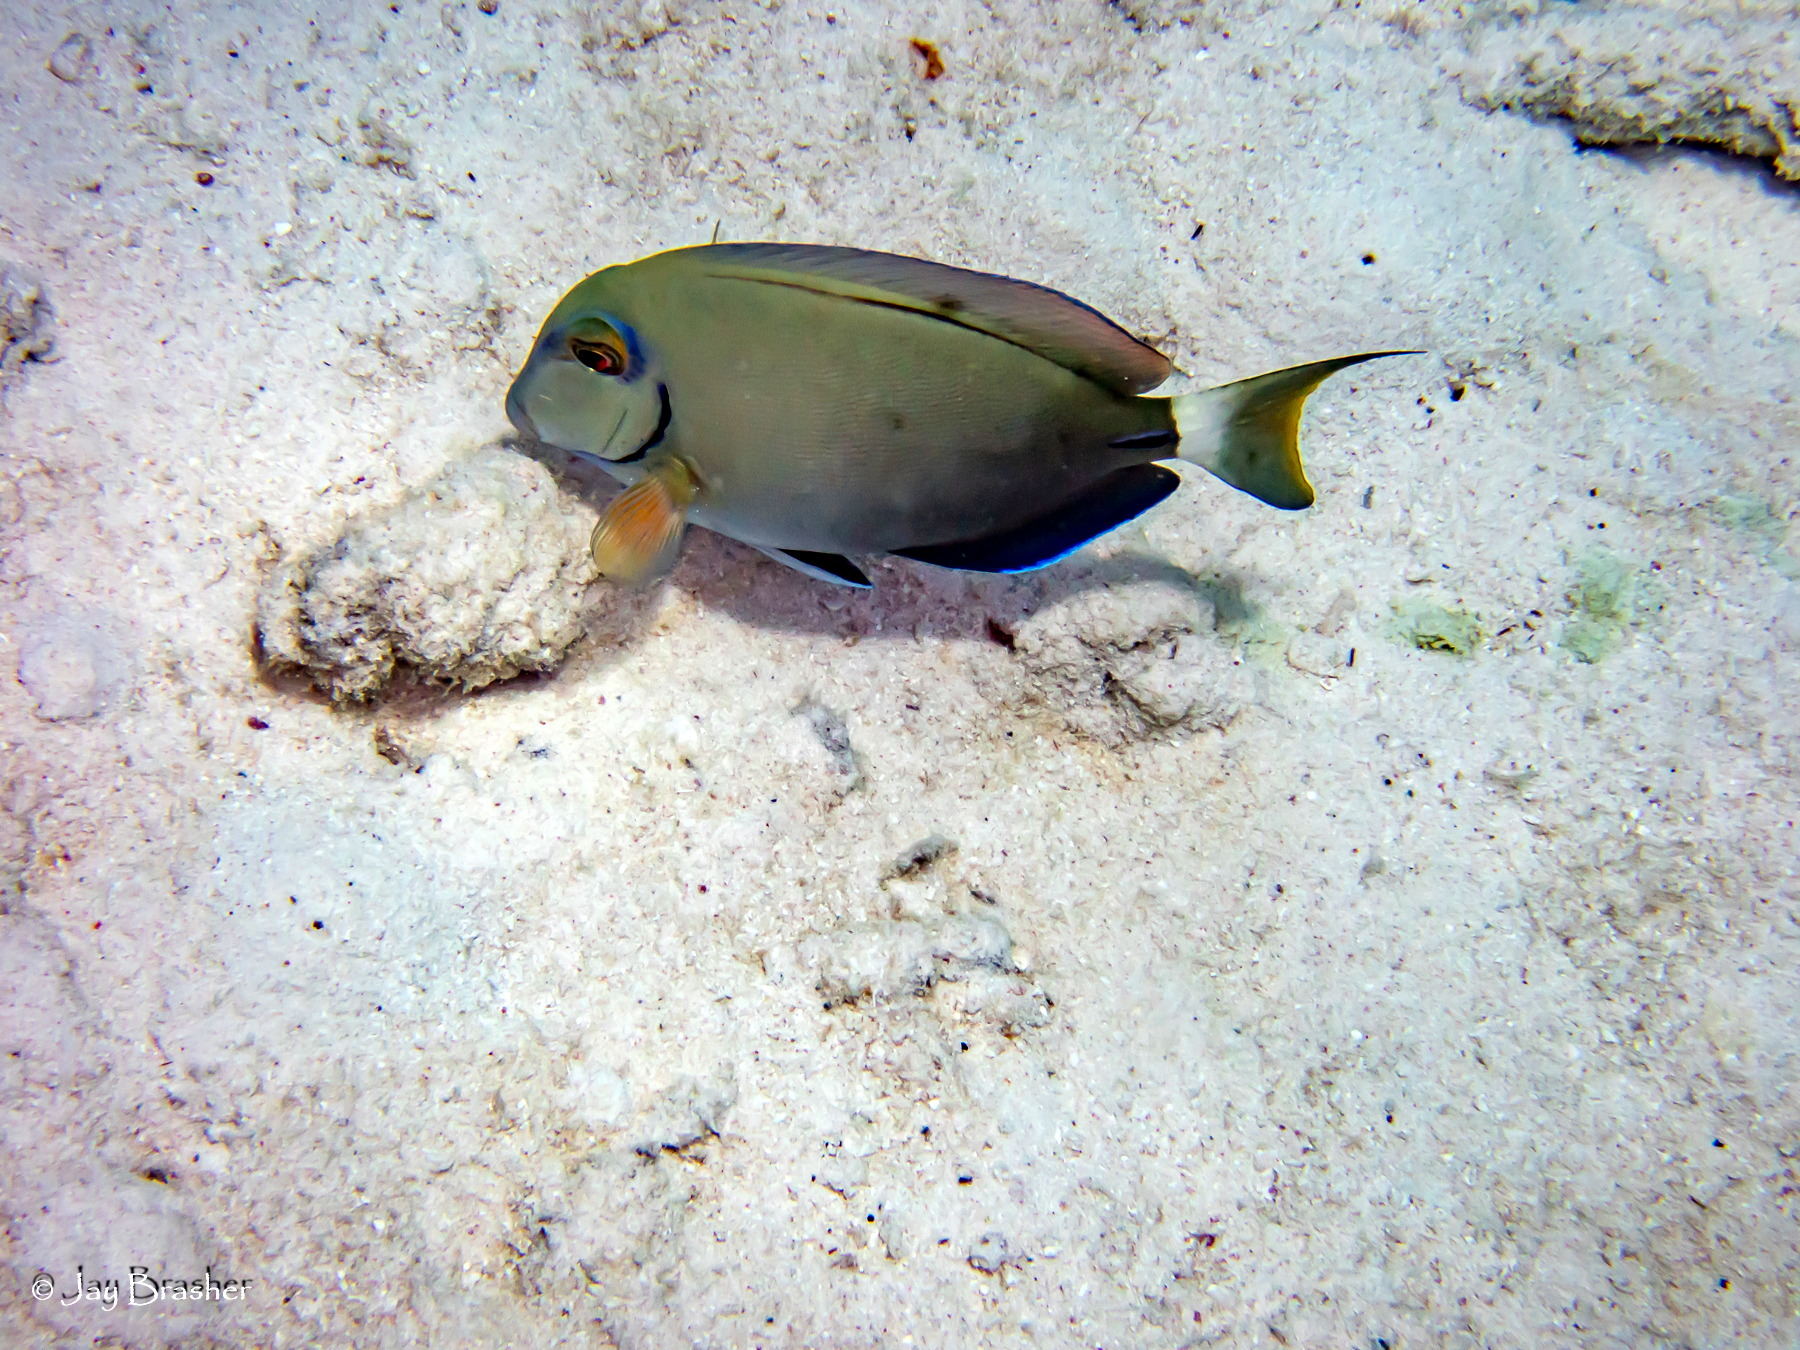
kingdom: Animalia
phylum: Chordata
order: Perciformes
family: Acanthuridae
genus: Acanthurus
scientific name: Acanthurus bahianus
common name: Ocean surgeon
